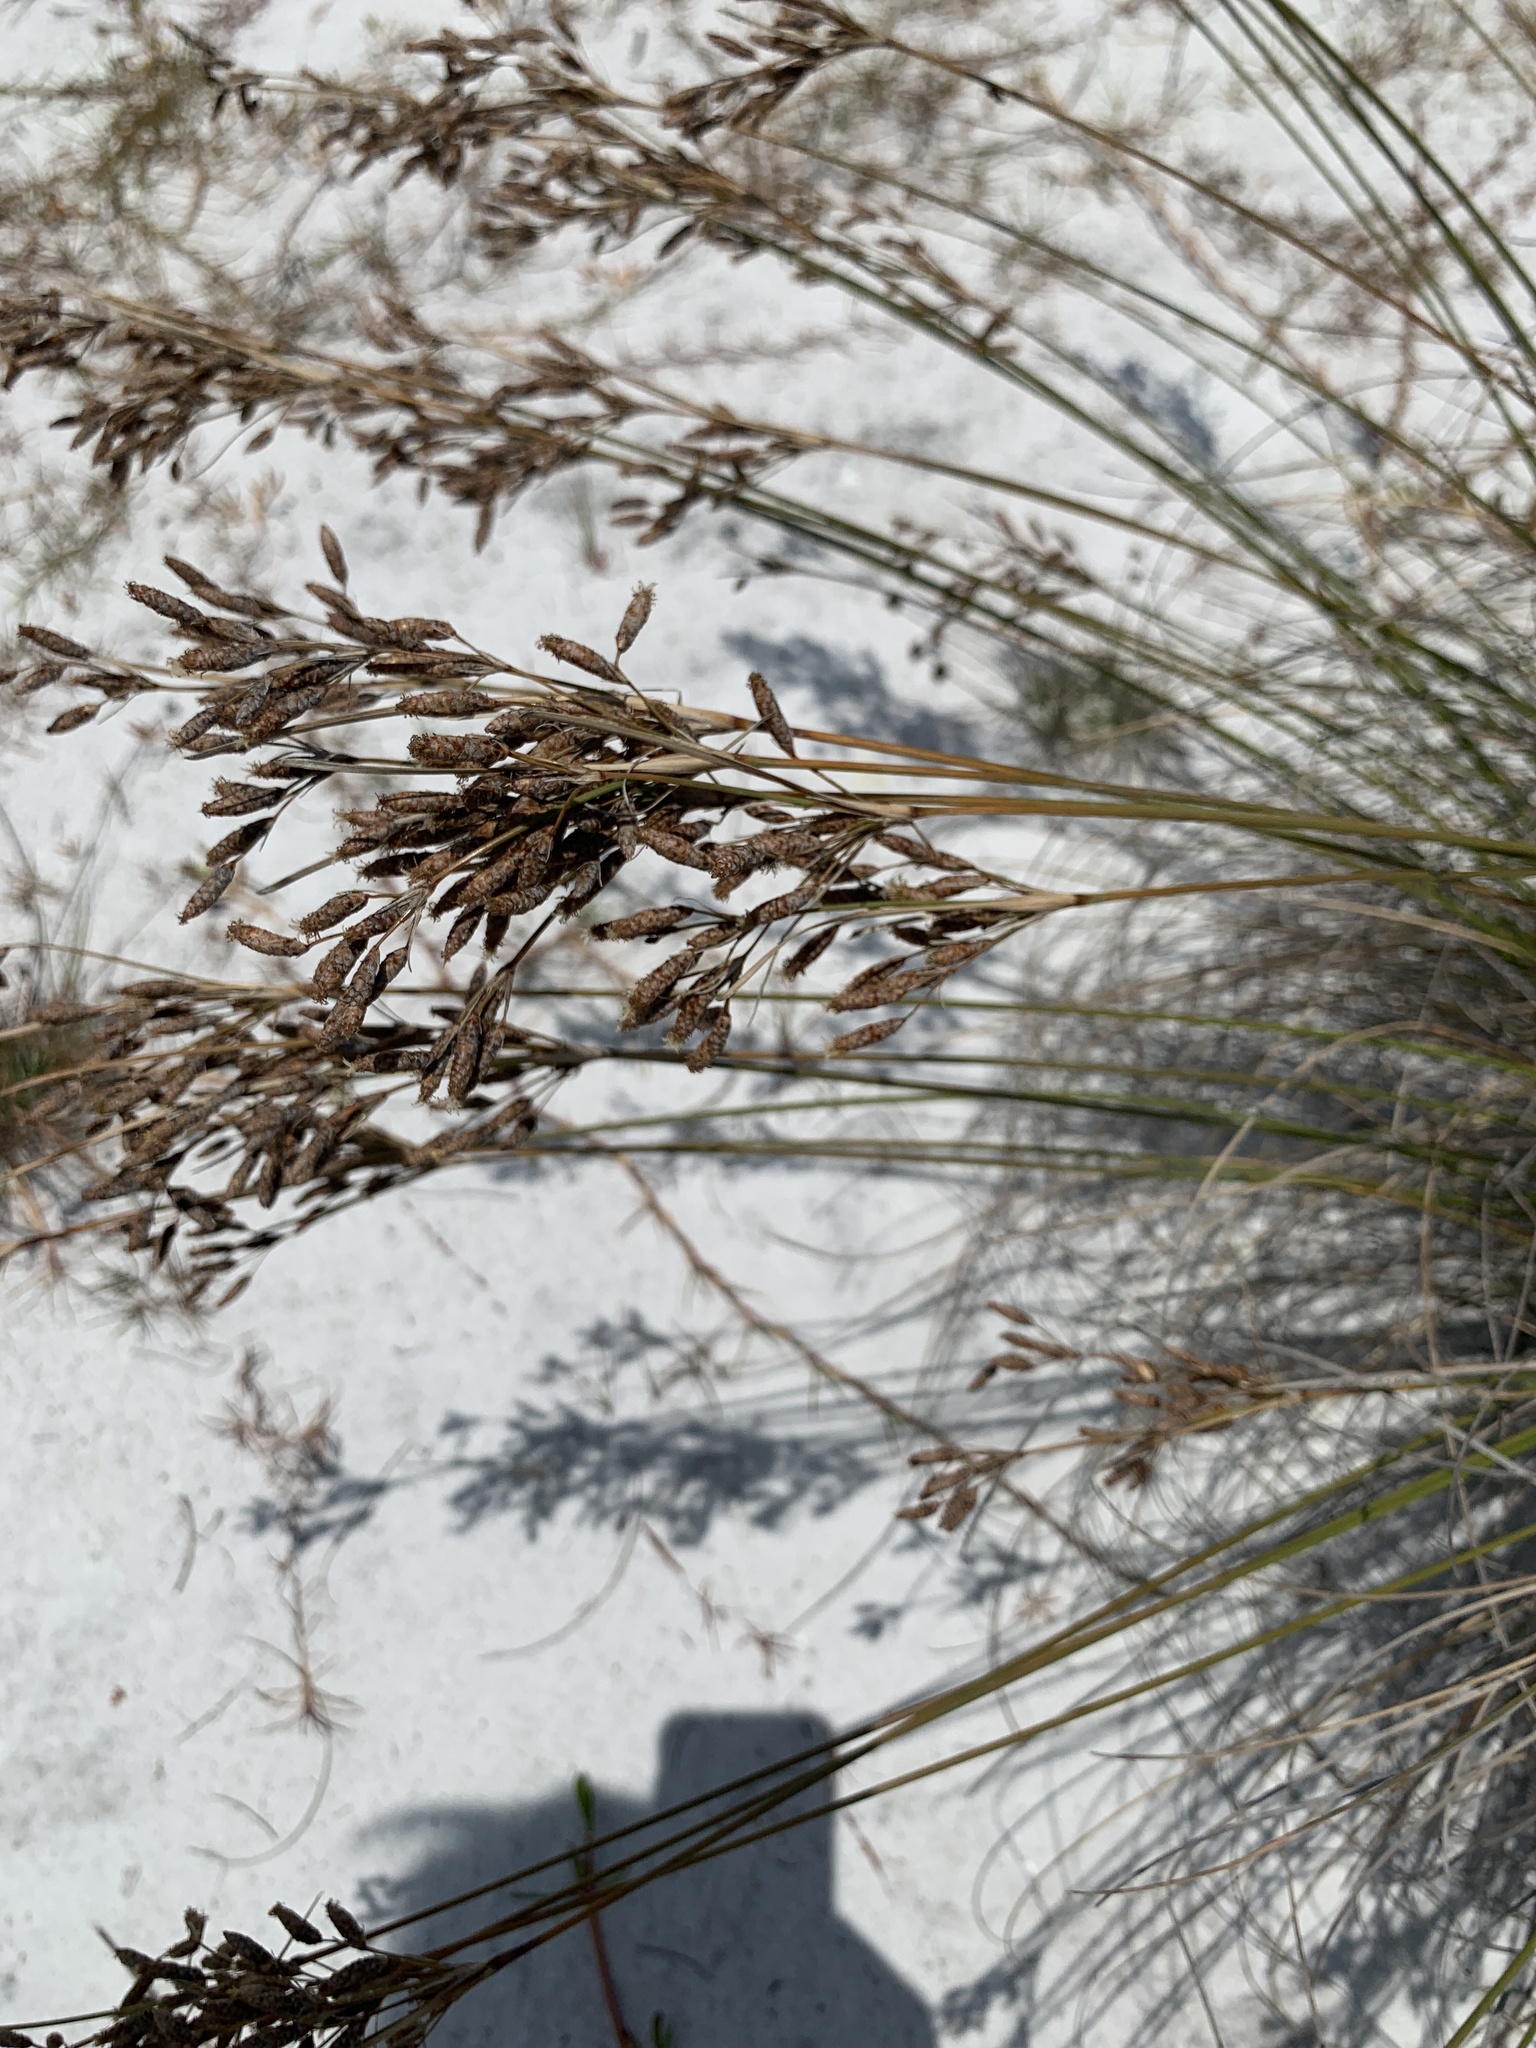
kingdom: Plantae
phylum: Tracheophyta
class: Liliopsida
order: Poales
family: Cyperaceae
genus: Fimbristylis
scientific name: Fimbristylis spadicea
